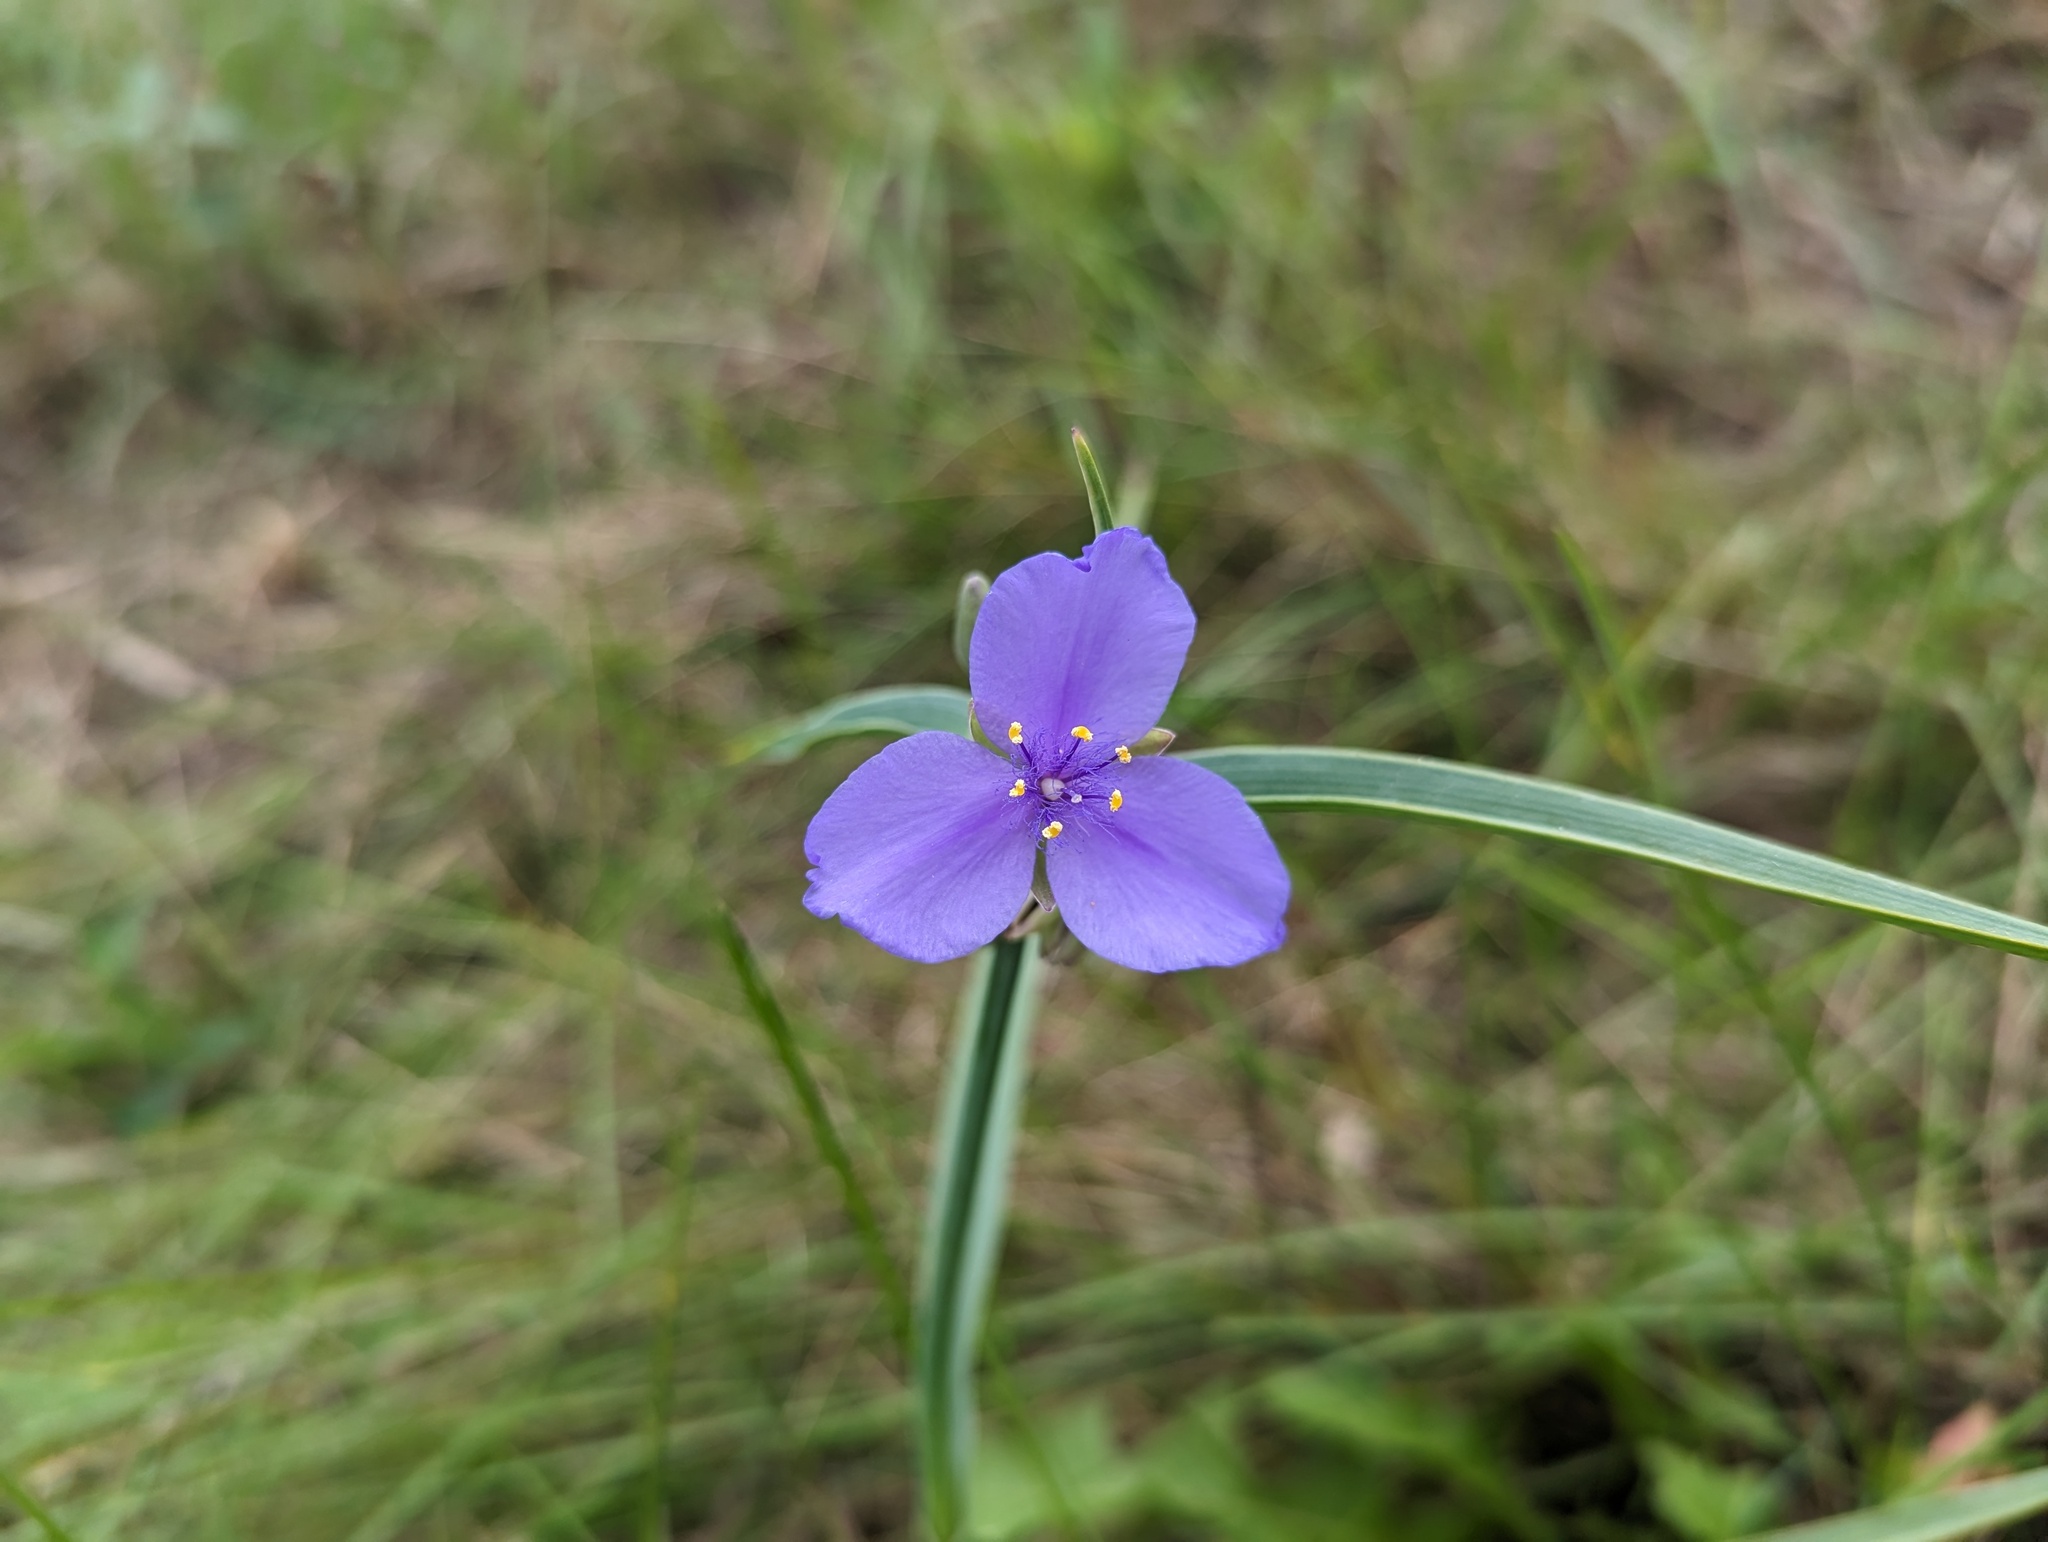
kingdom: Plantae
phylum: Tracheophyta
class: Liliopsida
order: Commelinales
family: Commelinaceae
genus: Tradescantia
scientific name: Tradescantia ohiensis
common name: Ohio spiderwort
